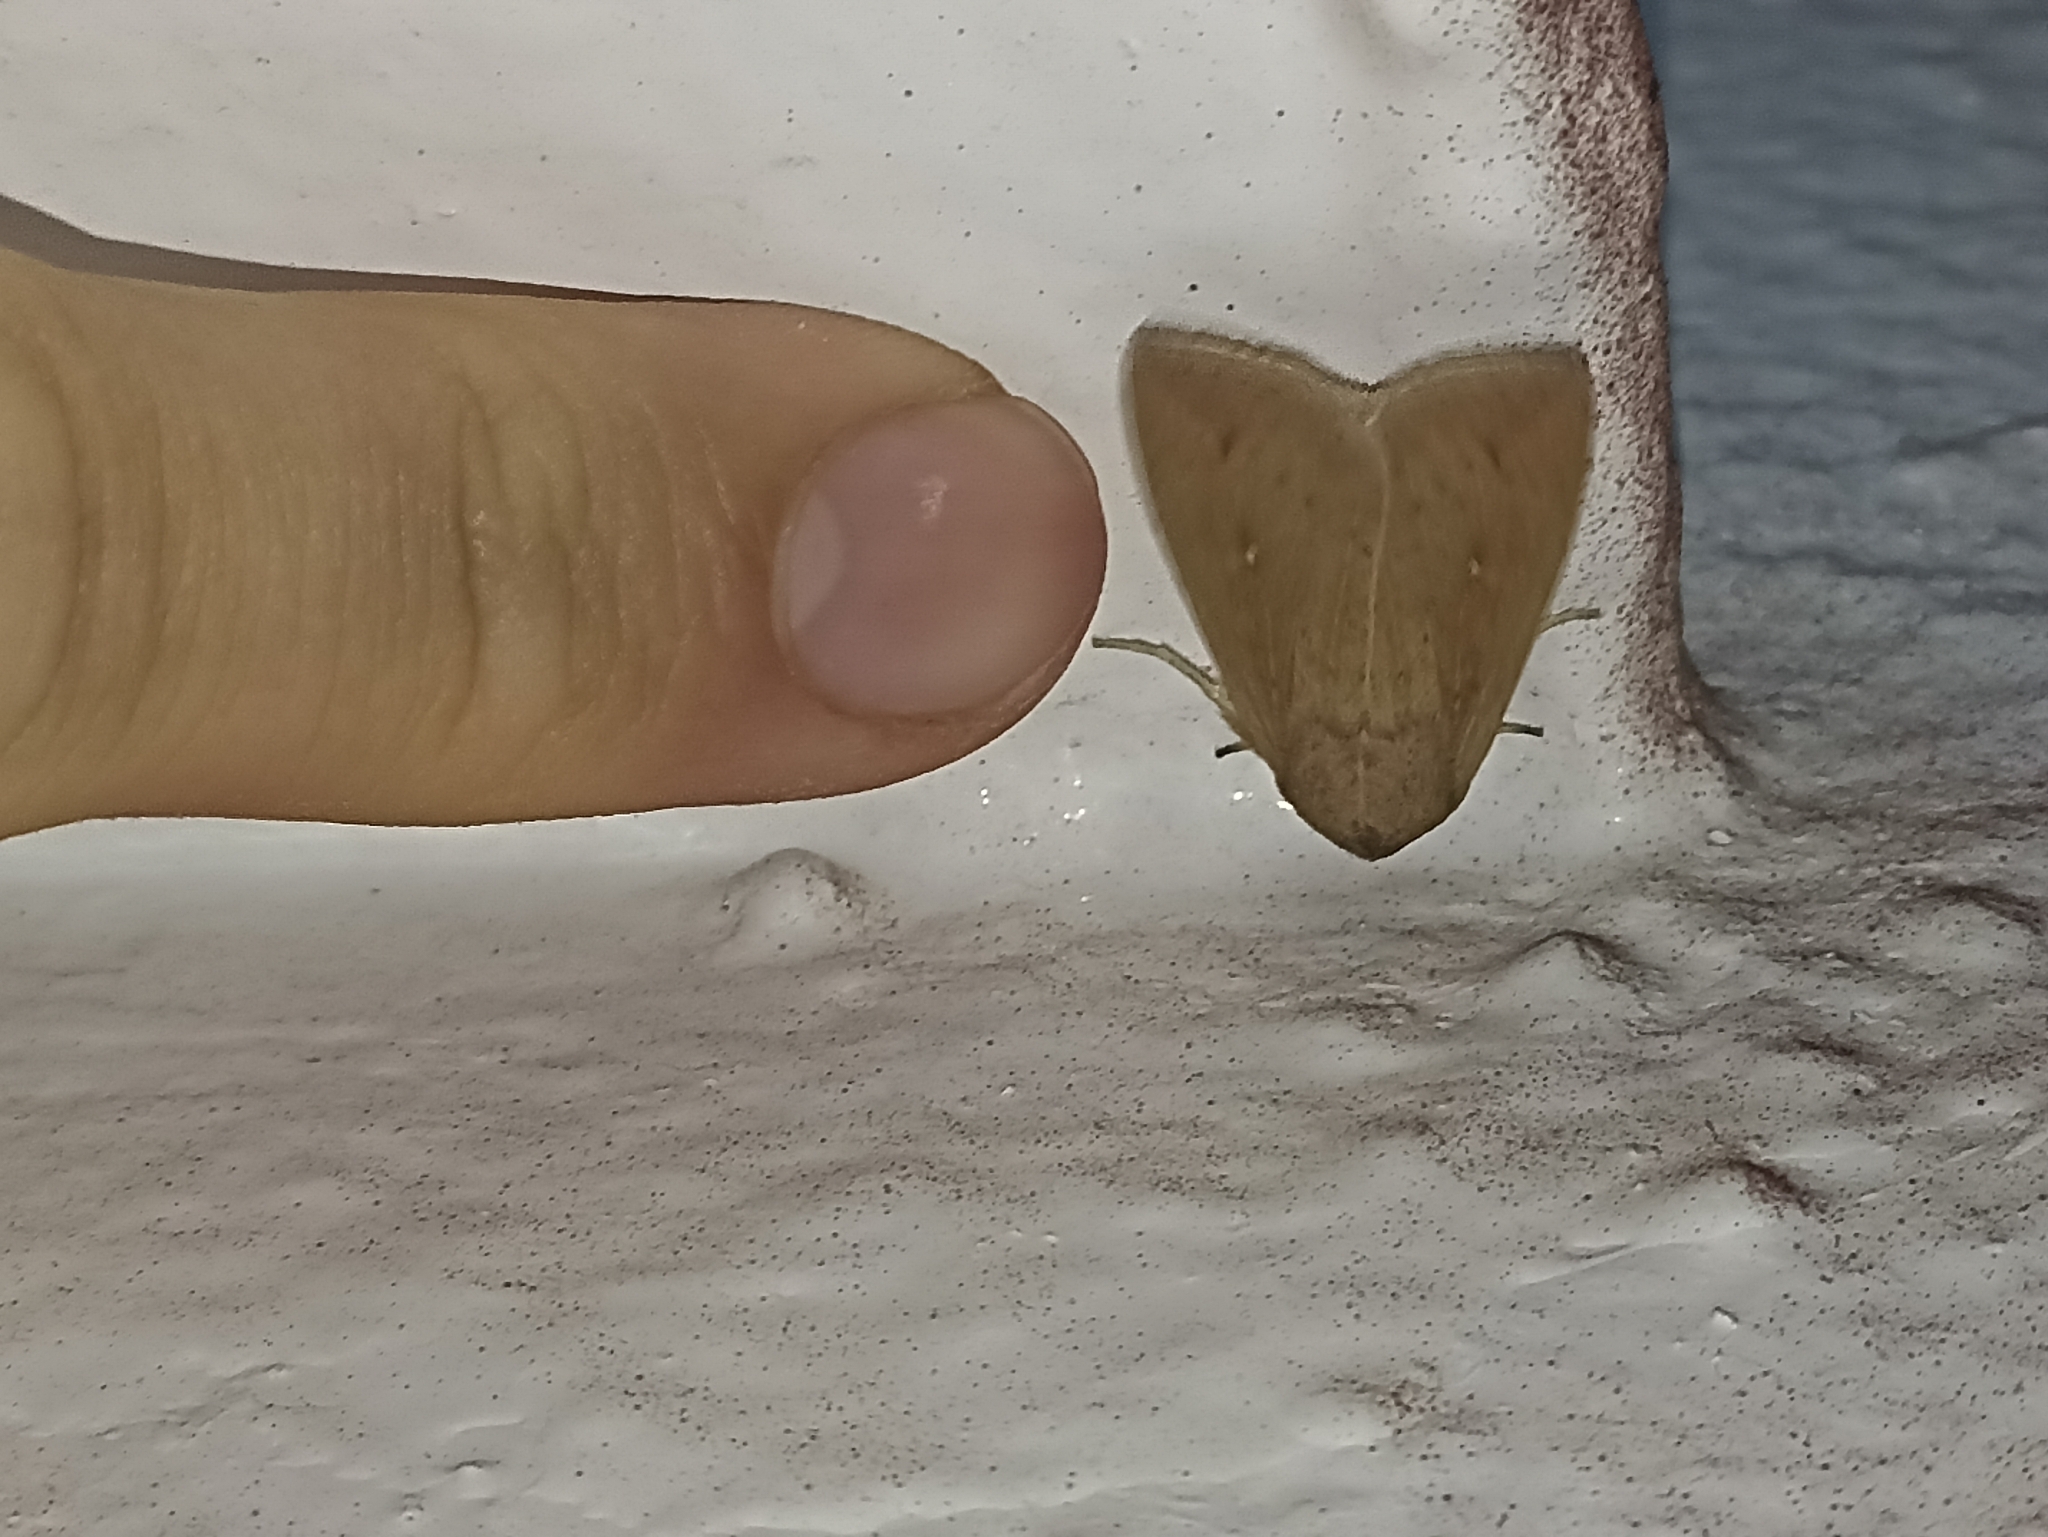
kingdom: Animalia
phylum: Arthropoda
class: Insecta
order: Lepidoptera
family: Noctuidae
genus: Mythimna
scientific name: Mythimna unipuncta
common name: White-speck
